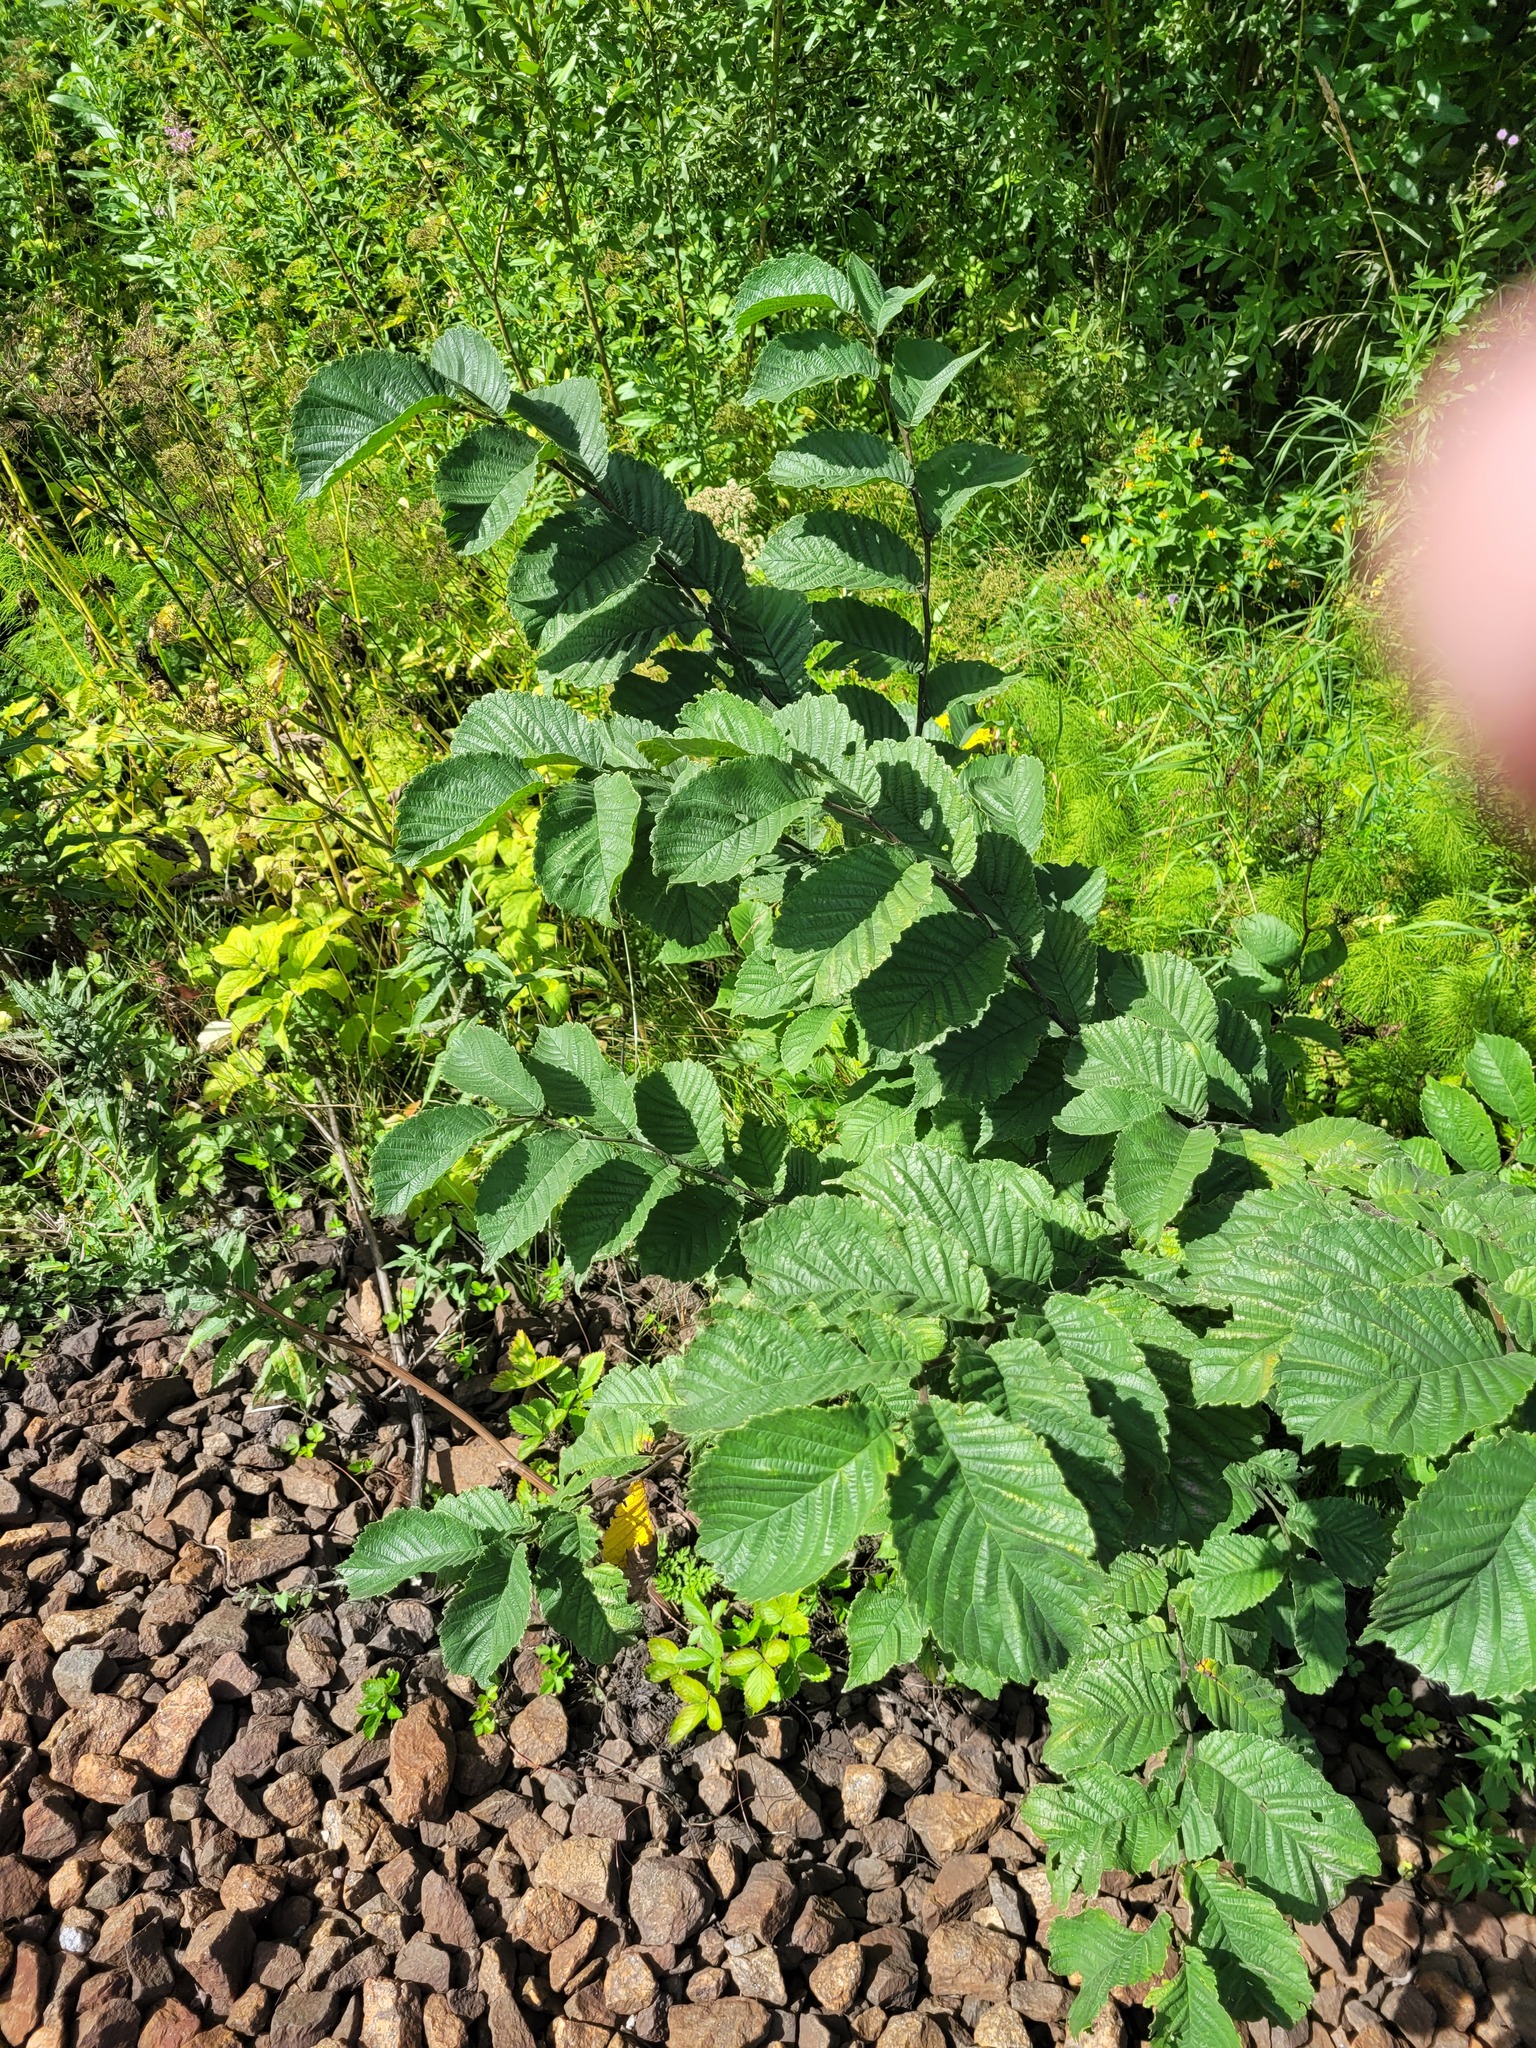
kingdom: Plantae
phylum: Tracheophyta
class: Magnoliopsida
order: Rosales
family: Ulmaceae
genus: Ulmus
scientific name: Ulmus glabra
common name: Wych elm
